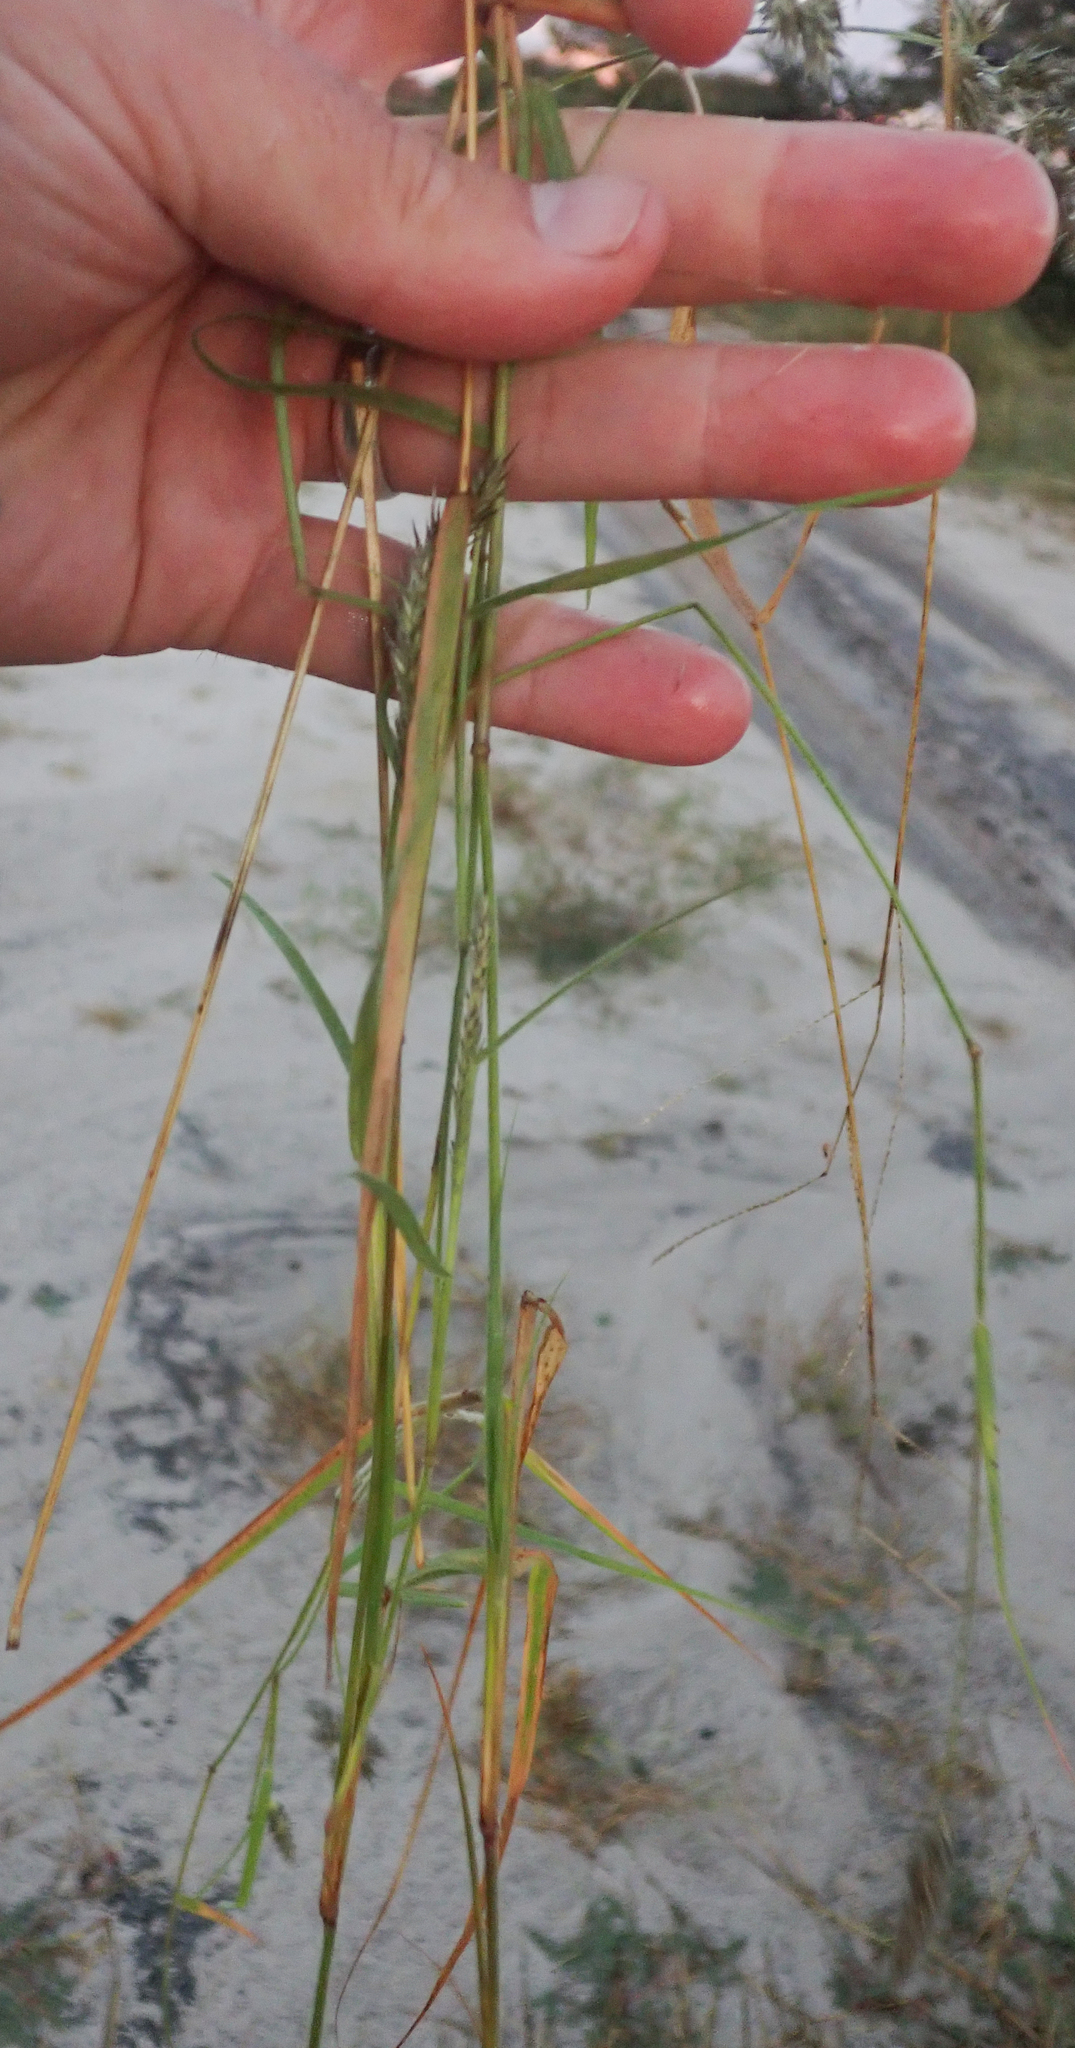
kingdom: Plantae
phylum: Tracheophyta
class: Liliopsida
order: Poales
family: Poaceae
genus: Enneapogon
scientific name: Enneapogon cenchroides
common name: Soft feather pappusgrass
